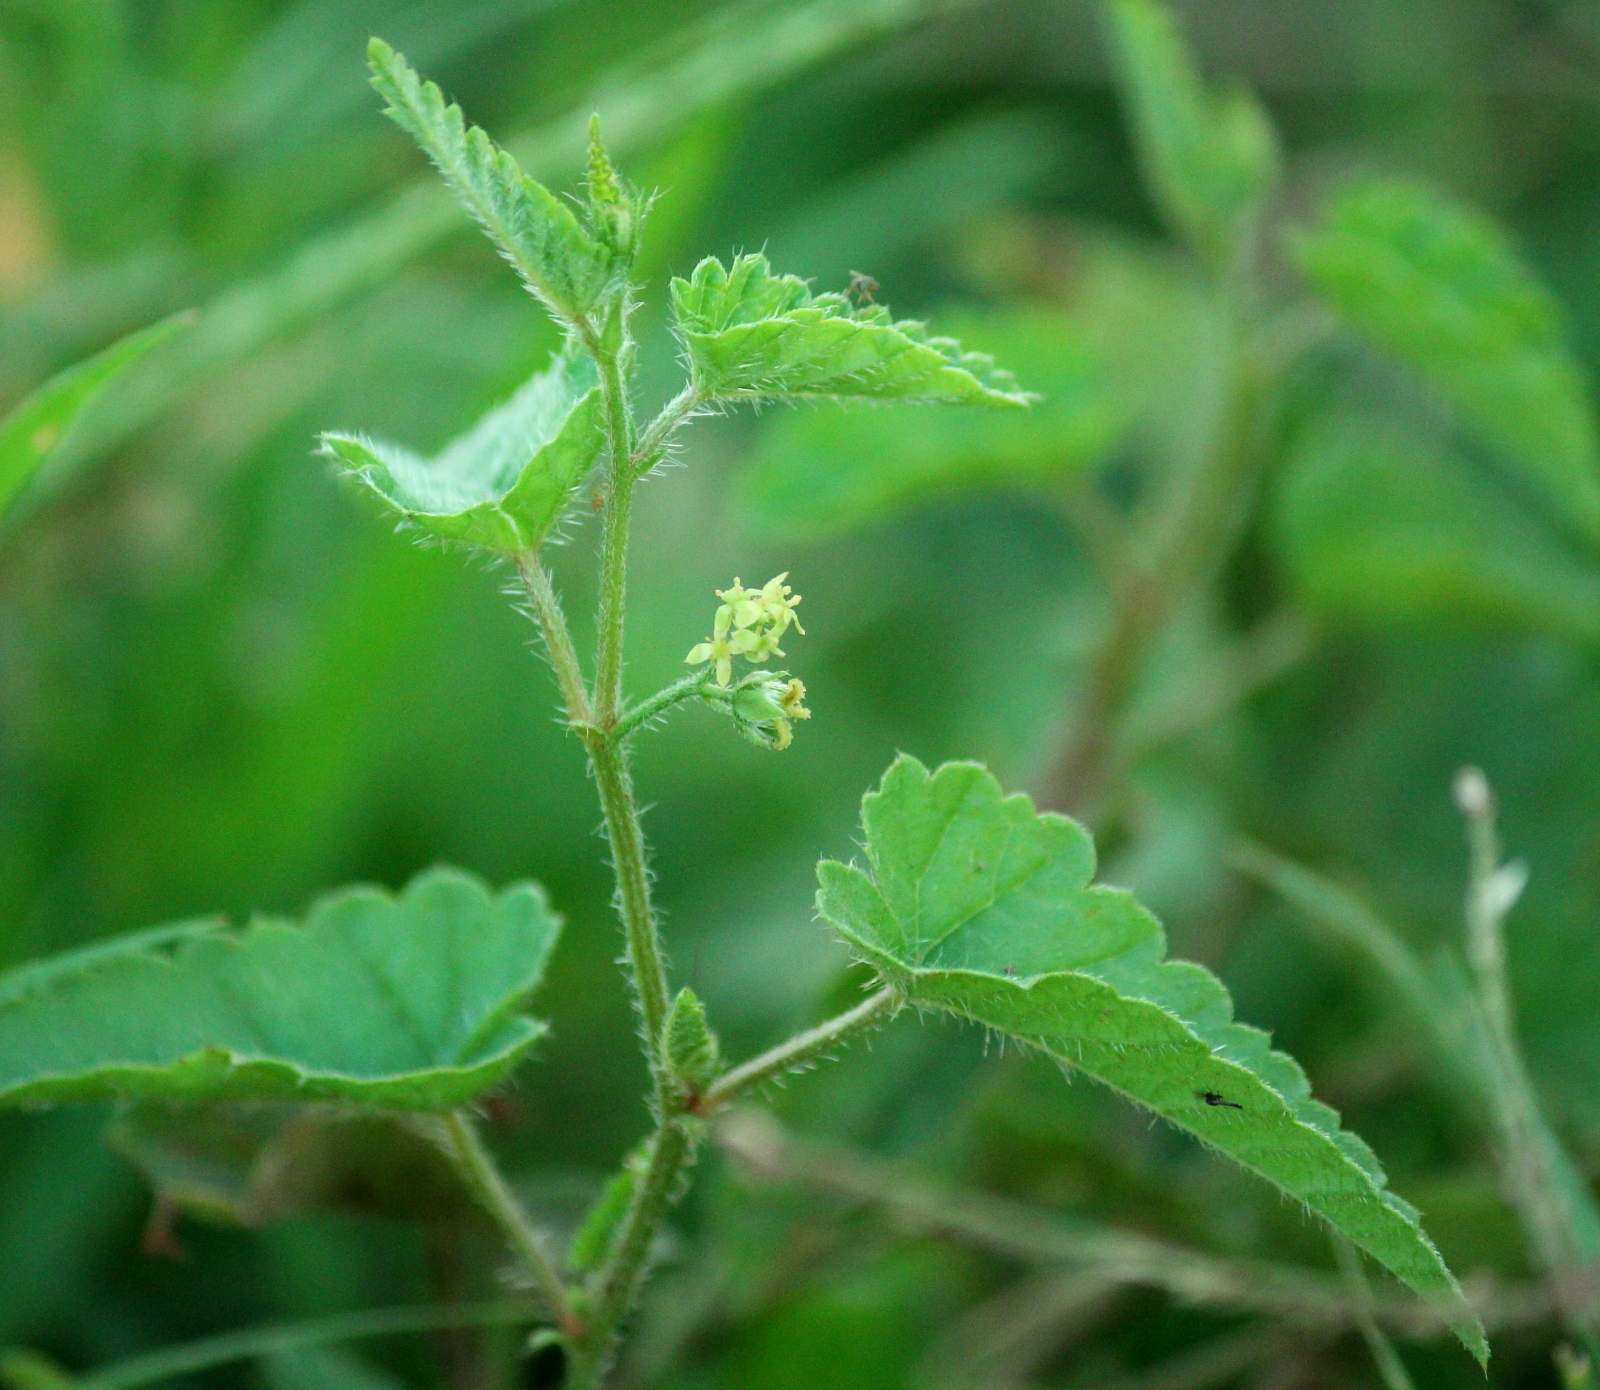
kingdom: Plantae
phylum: Tracheophyta
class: Magnoliopsida
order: Malpighiales
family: Euphorbiaceae
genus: Tragia
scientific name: Tragia urticifolia
